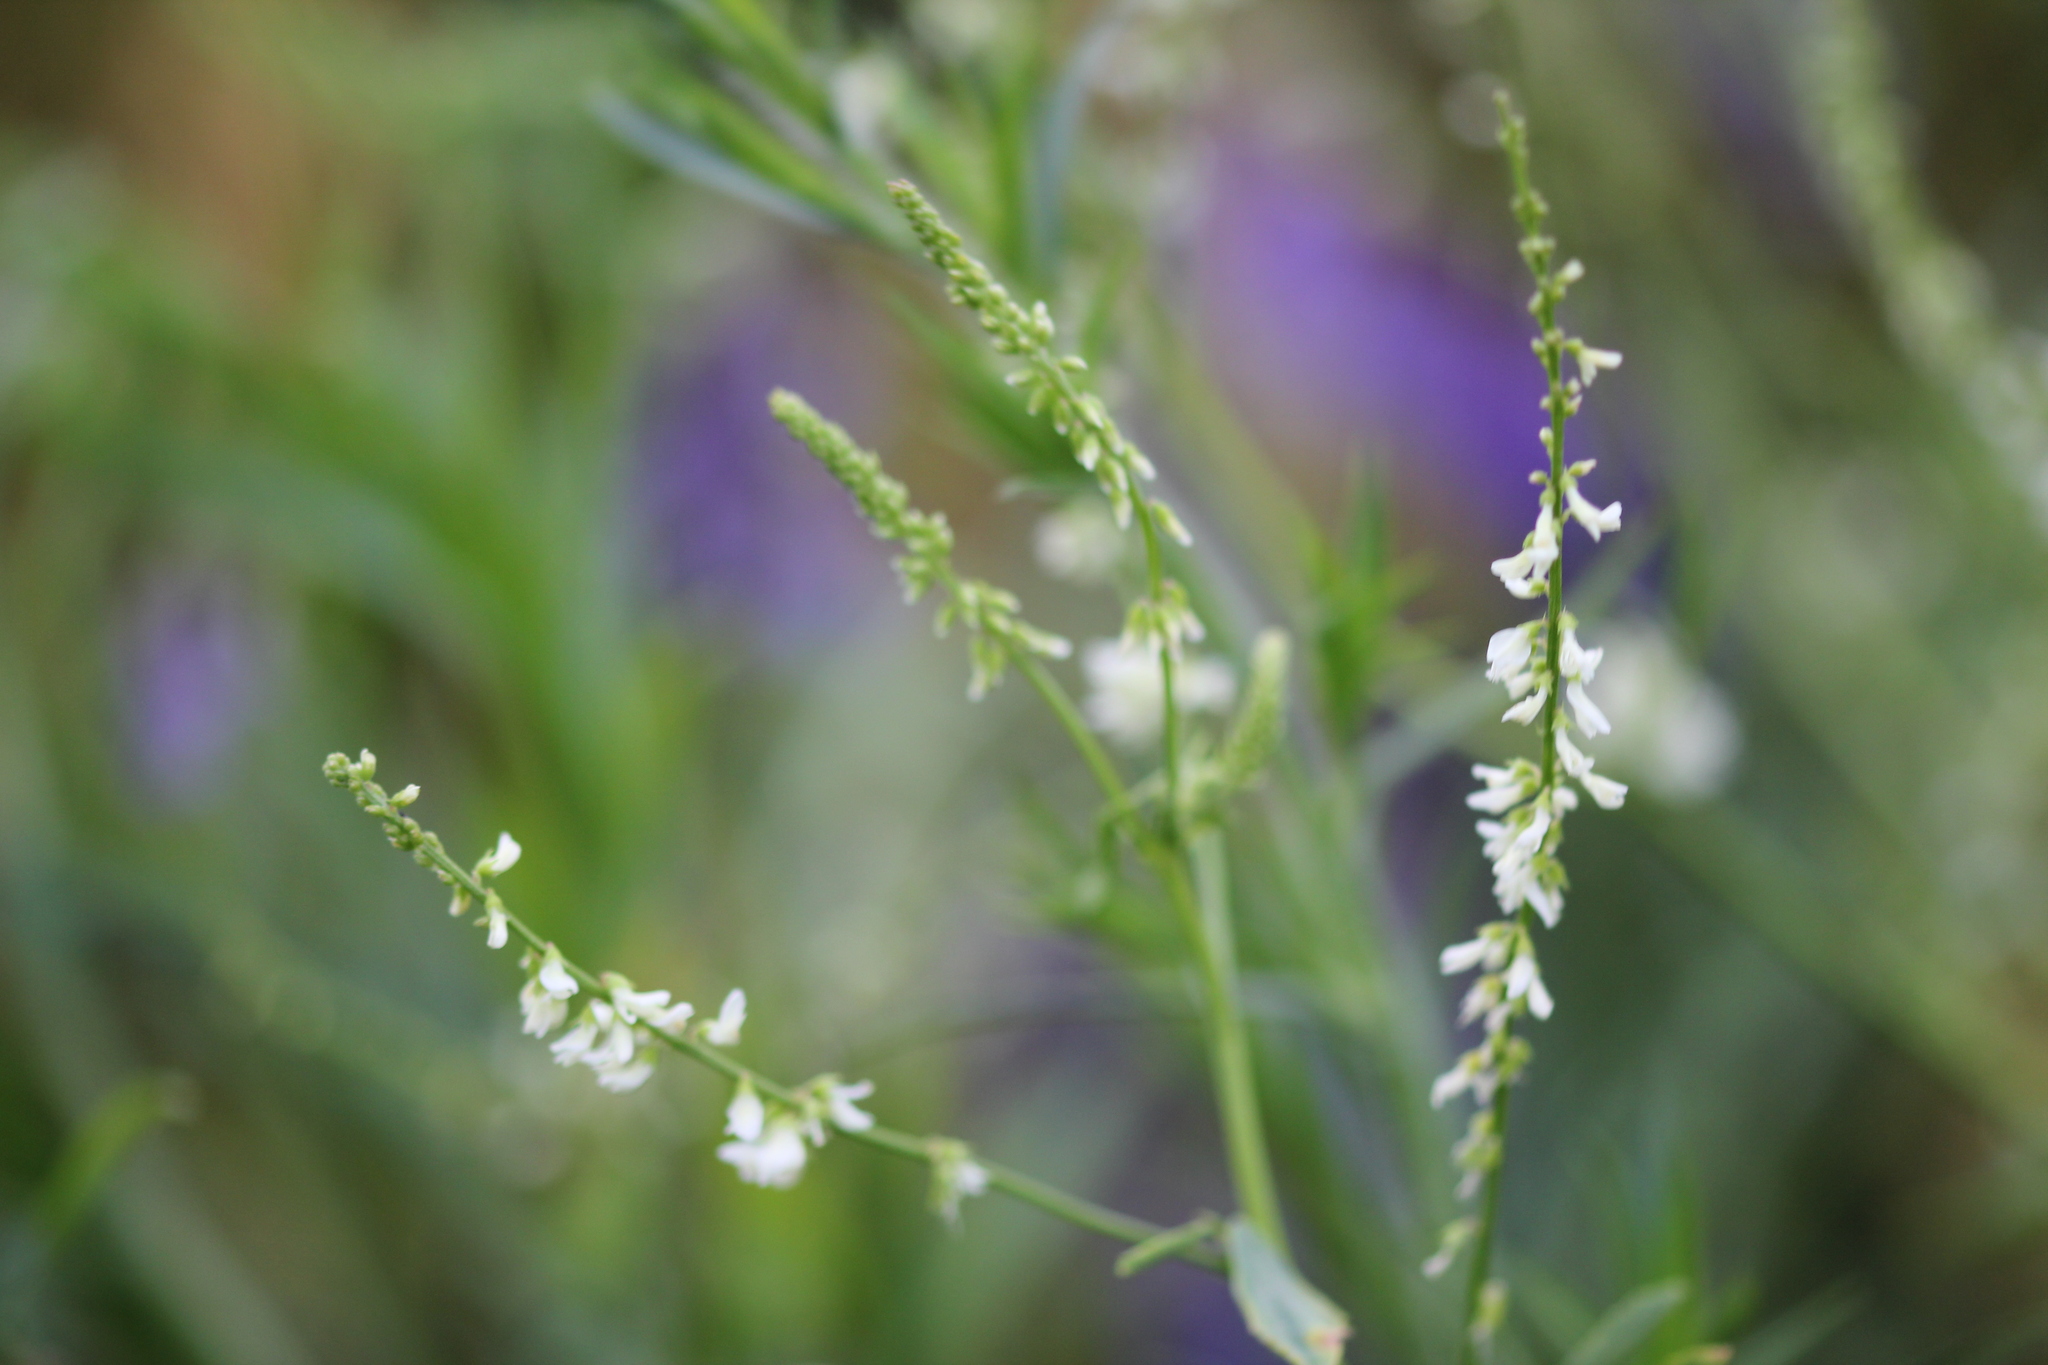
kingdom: Plantae
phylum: Tracheophyta
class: Magnoliopsida
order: Fabales
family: Fabaceae
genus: Melilotus
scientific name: Melilotus albus
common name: White melilot
